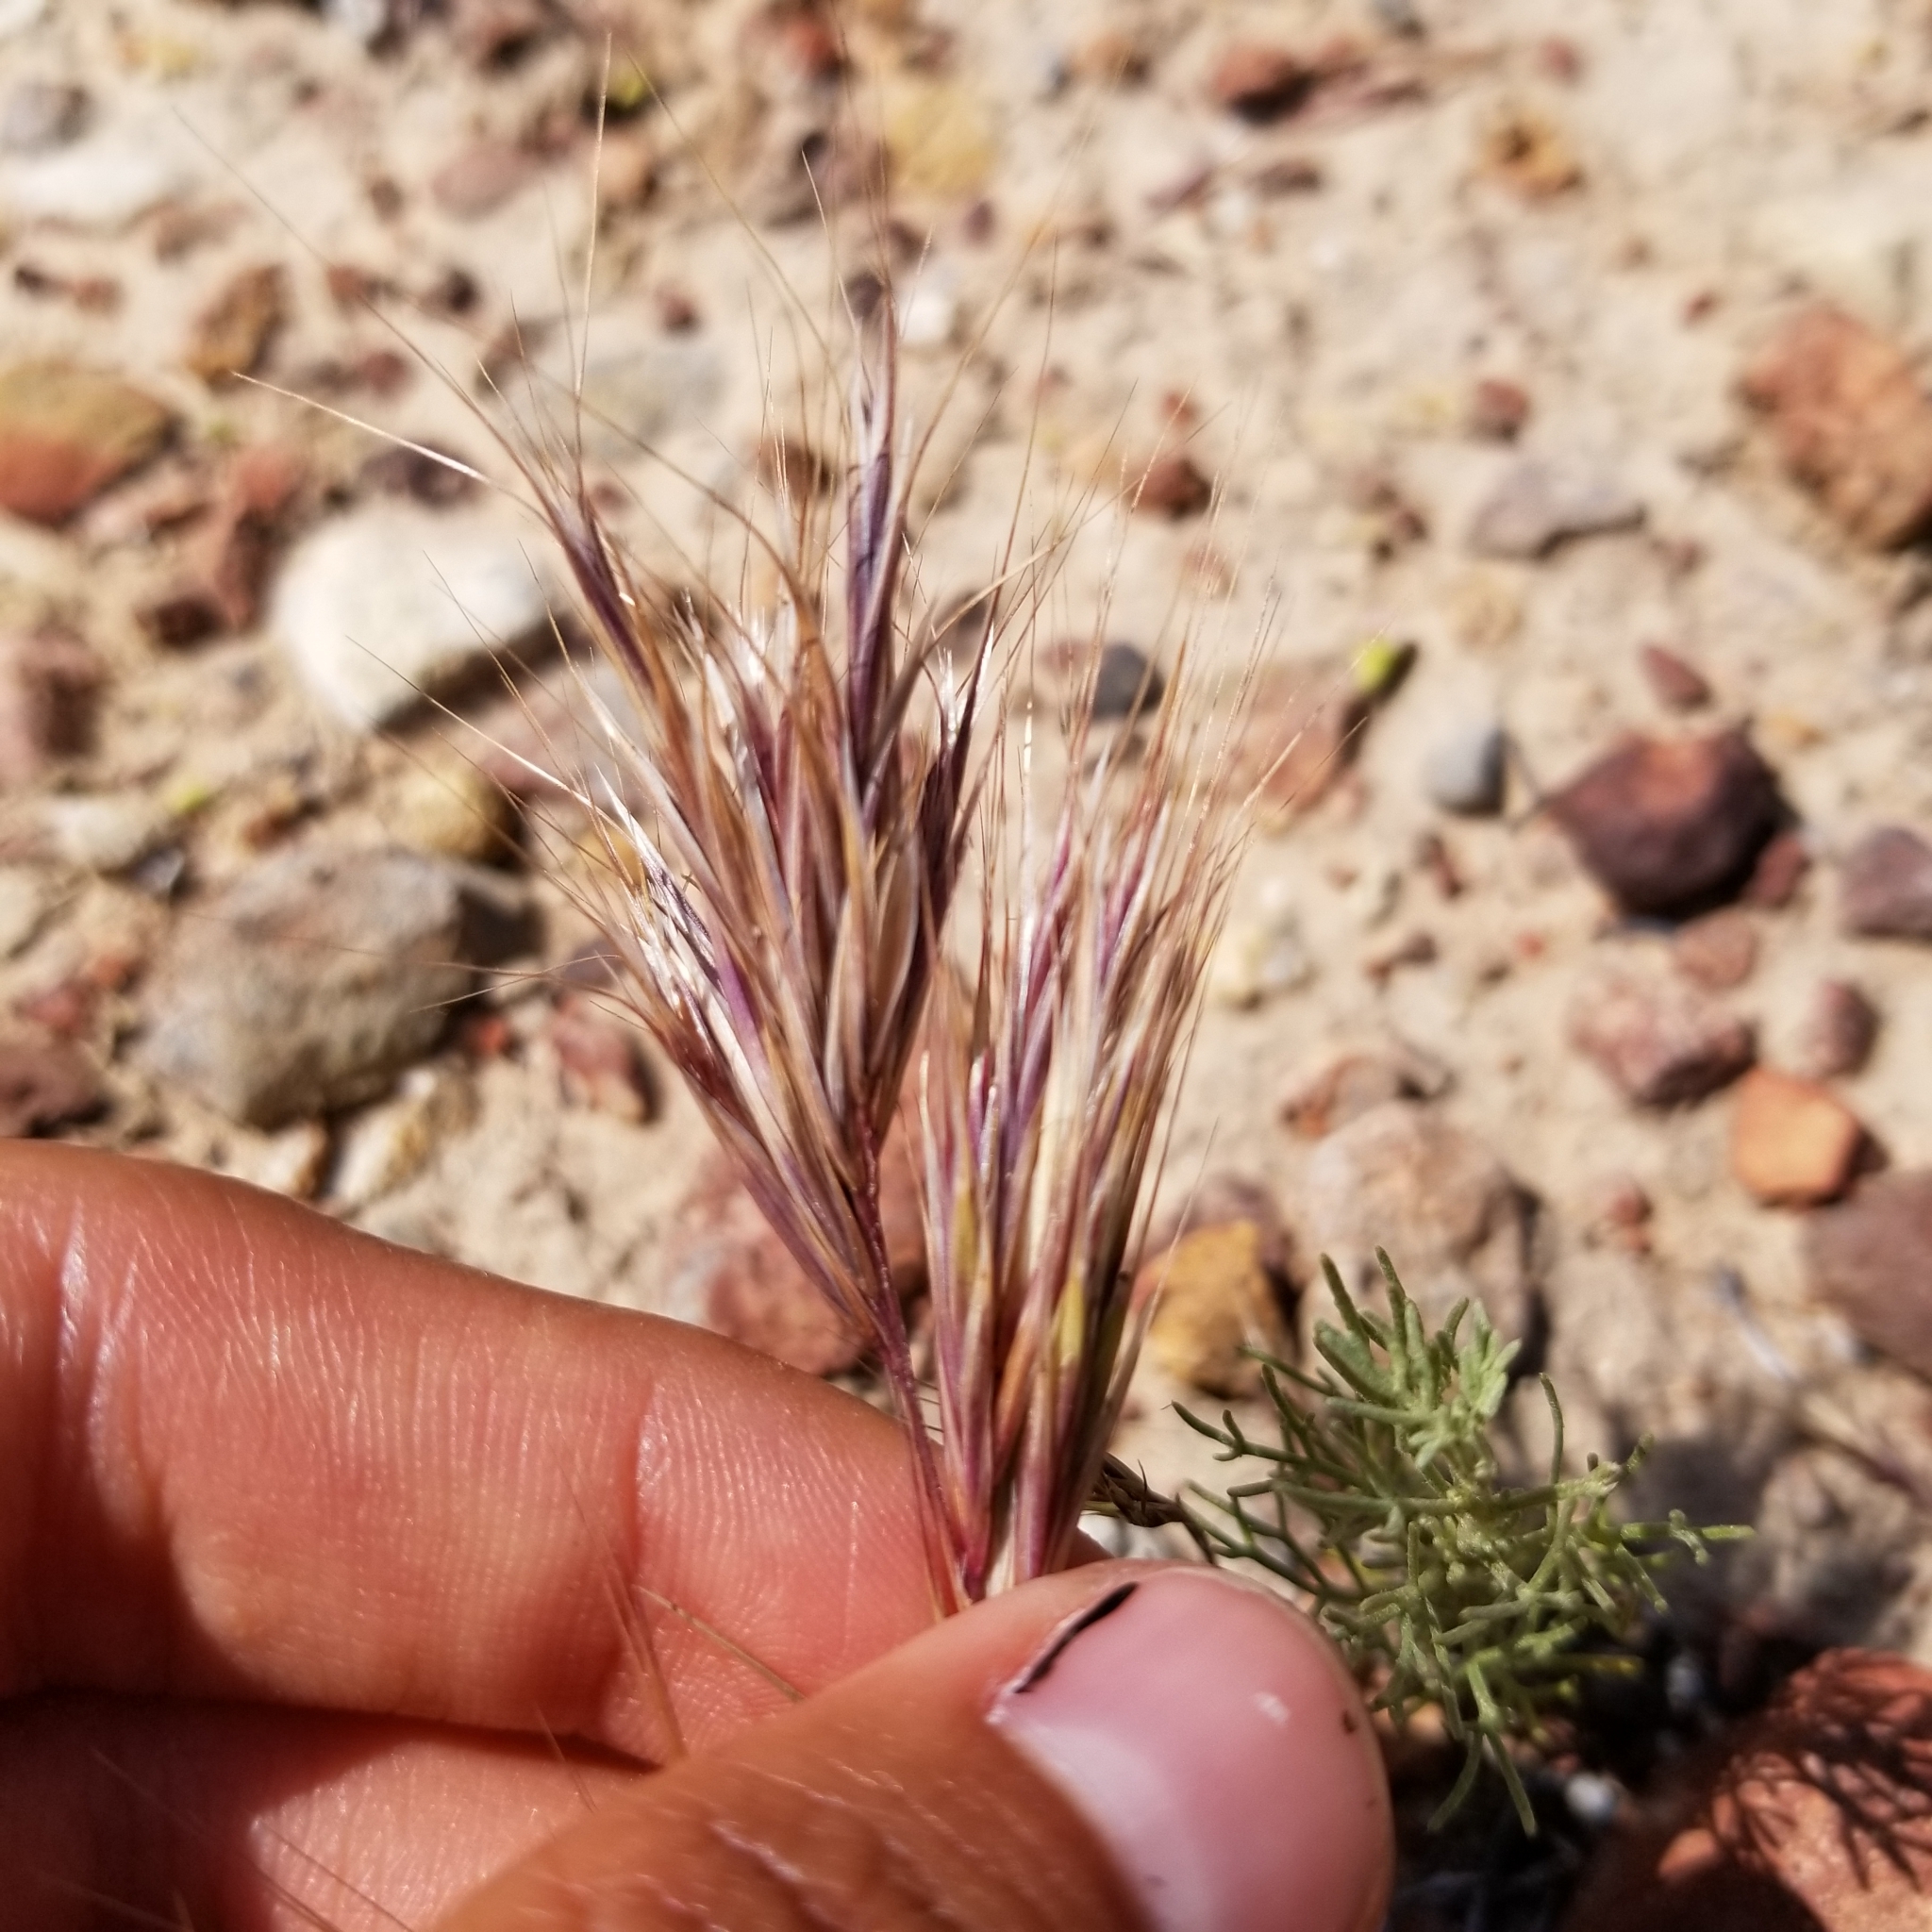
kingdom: Plantae
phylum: Tracheophyta
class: Liliopsida
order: Poales
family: Poaceae
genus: Bromus
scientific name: Bromus rubens
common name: Red brome
